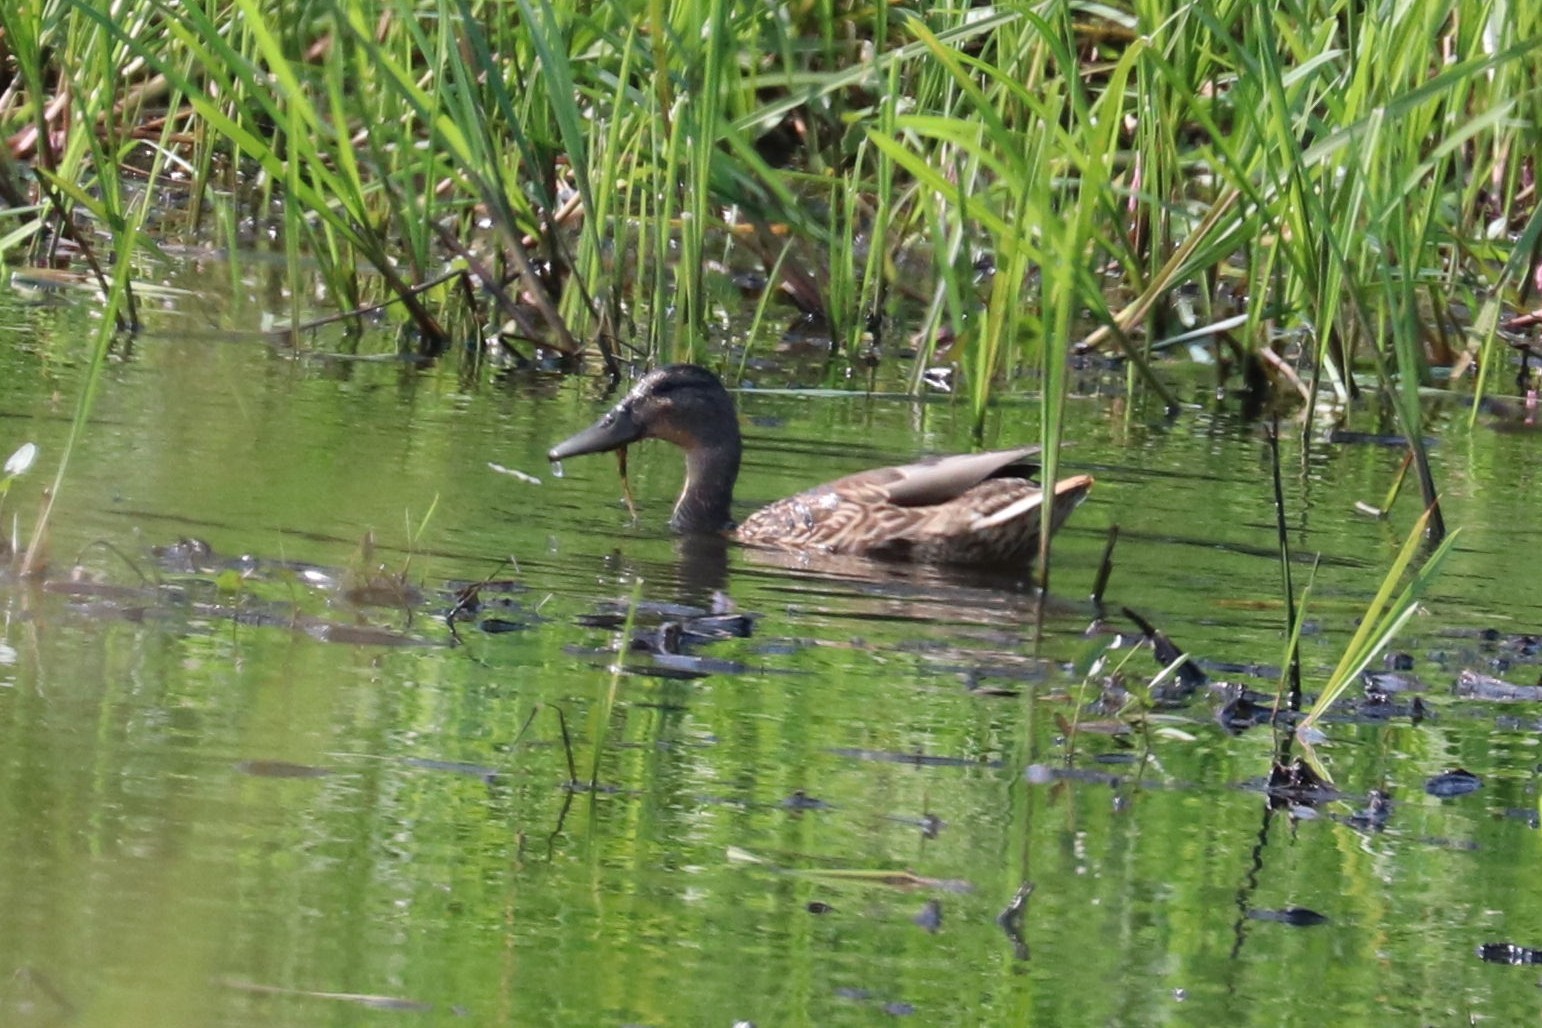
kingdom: Animalia
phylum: Chordata
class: Aves
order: Anseriformes
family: Anatidae
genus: Anas
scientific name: Anas platyrhynchos
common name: Mallard
